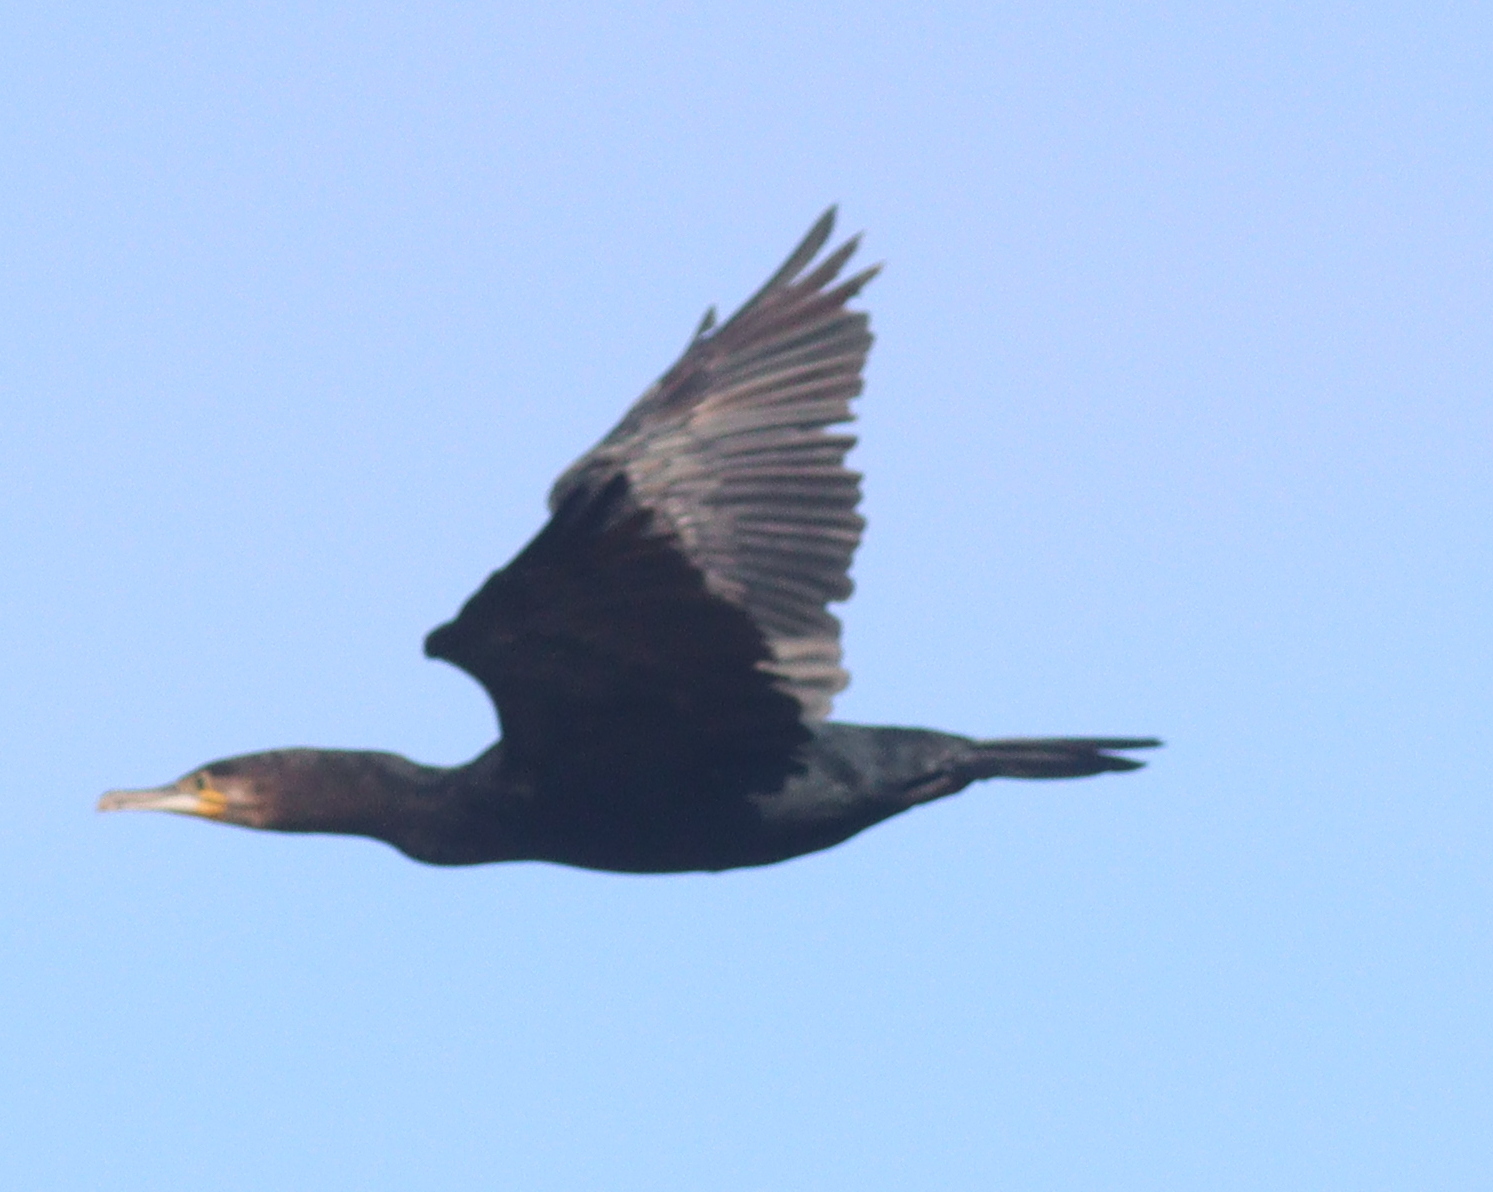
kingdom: Animalia
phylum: Chordata
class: Aves
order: Suliformes
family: Phalacrocoracidae
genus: Phalacrocorax
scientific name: Phalacrocorax carbo
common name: Great cormorant
